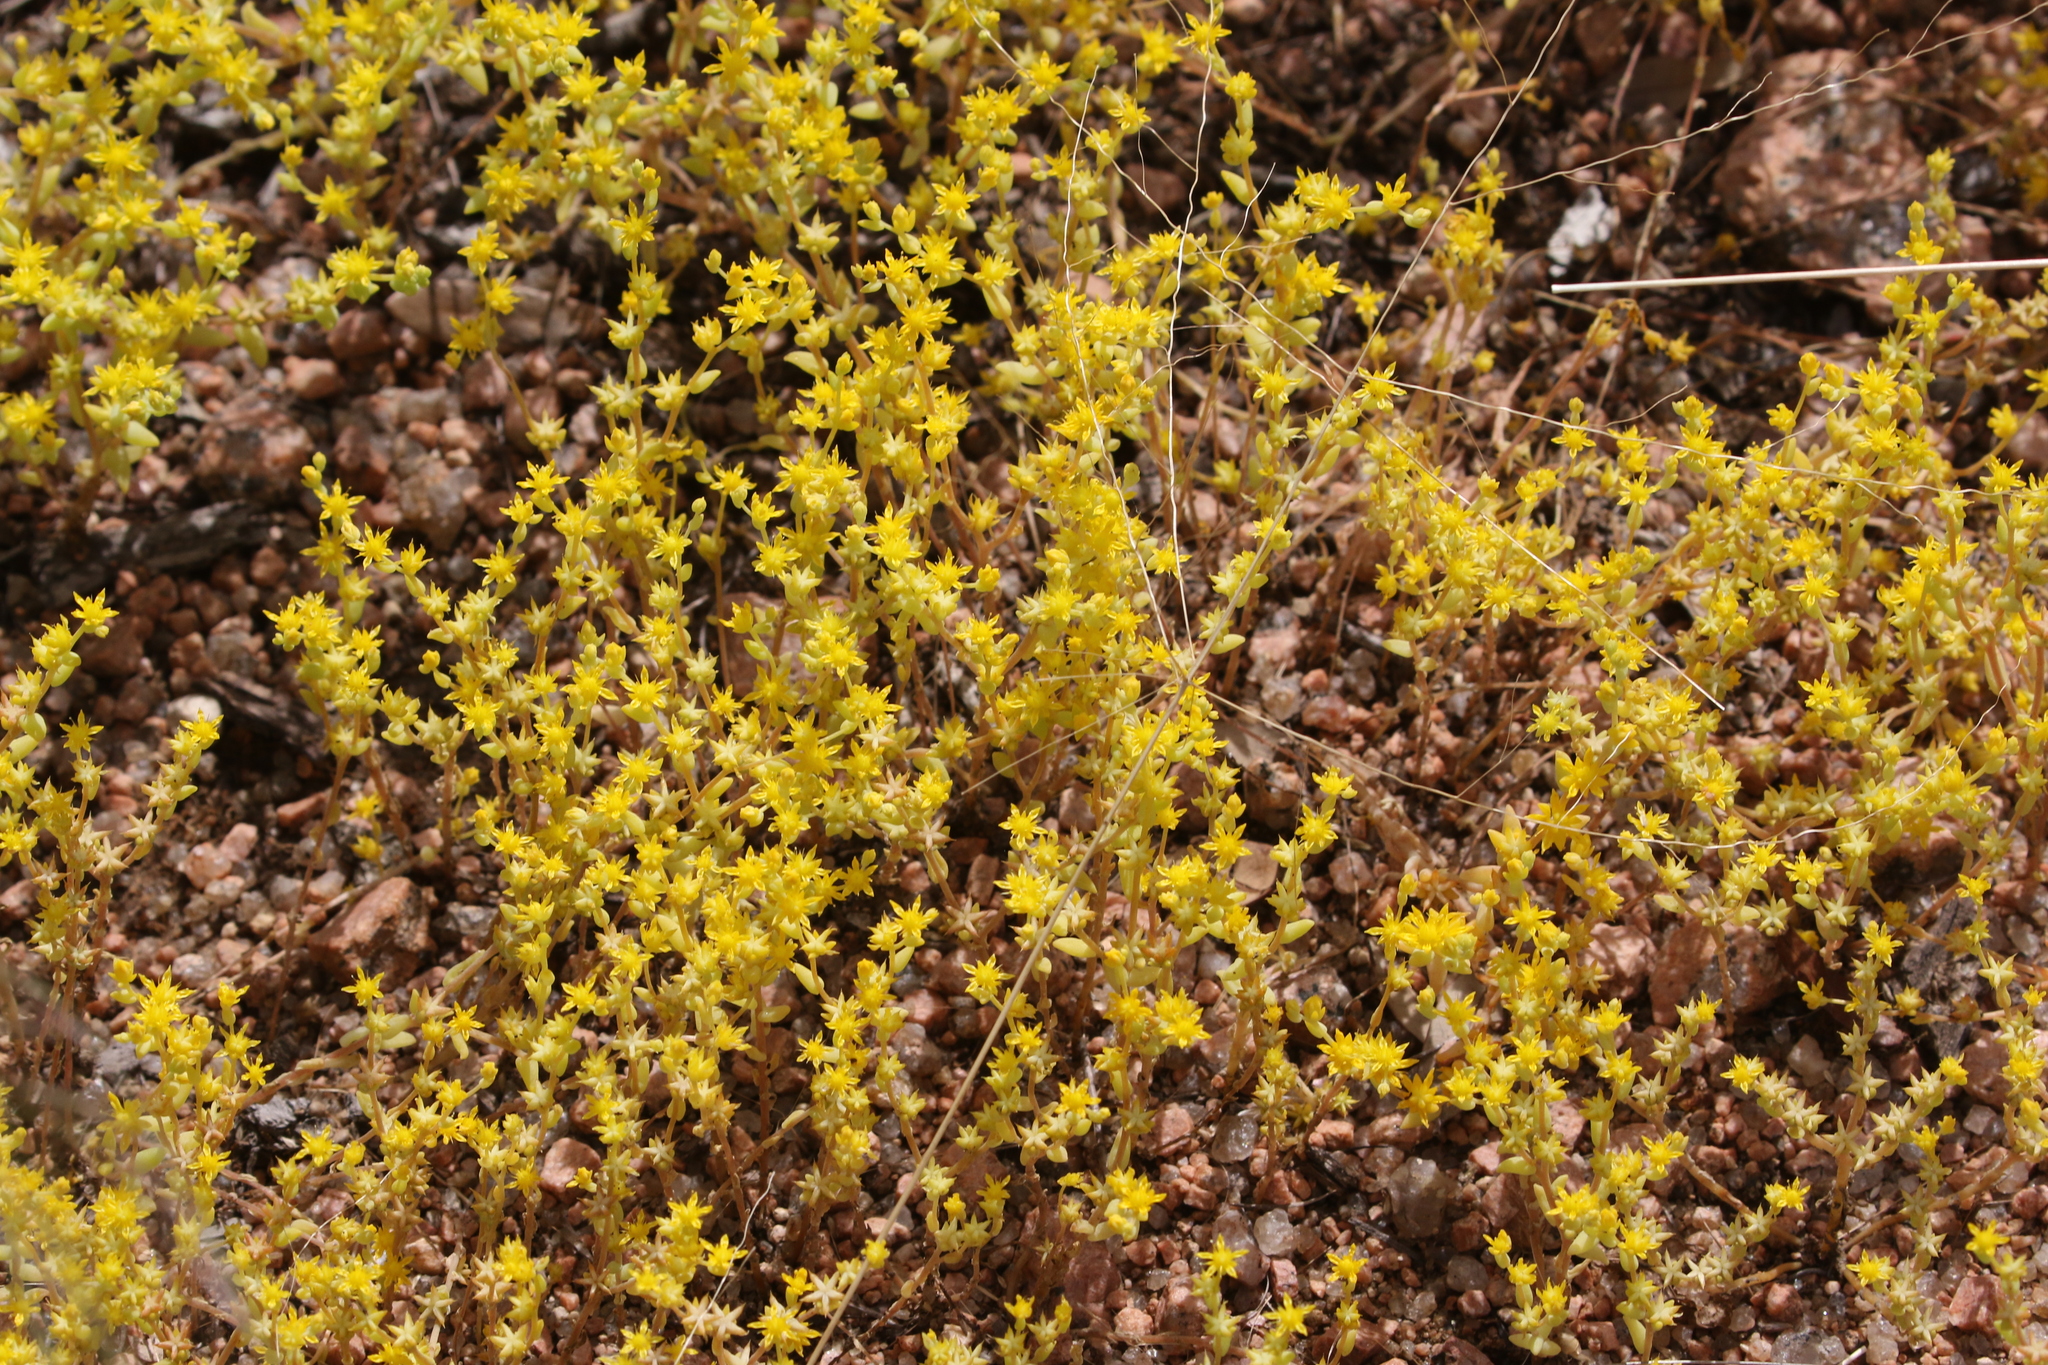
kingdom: Plantae
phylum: Tracheophyta
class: Magnoliopsida
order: Saxifragales
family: Crassulaceae
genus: Sedum
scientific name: Sedum nuttallii
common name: Yellow stonecrop
